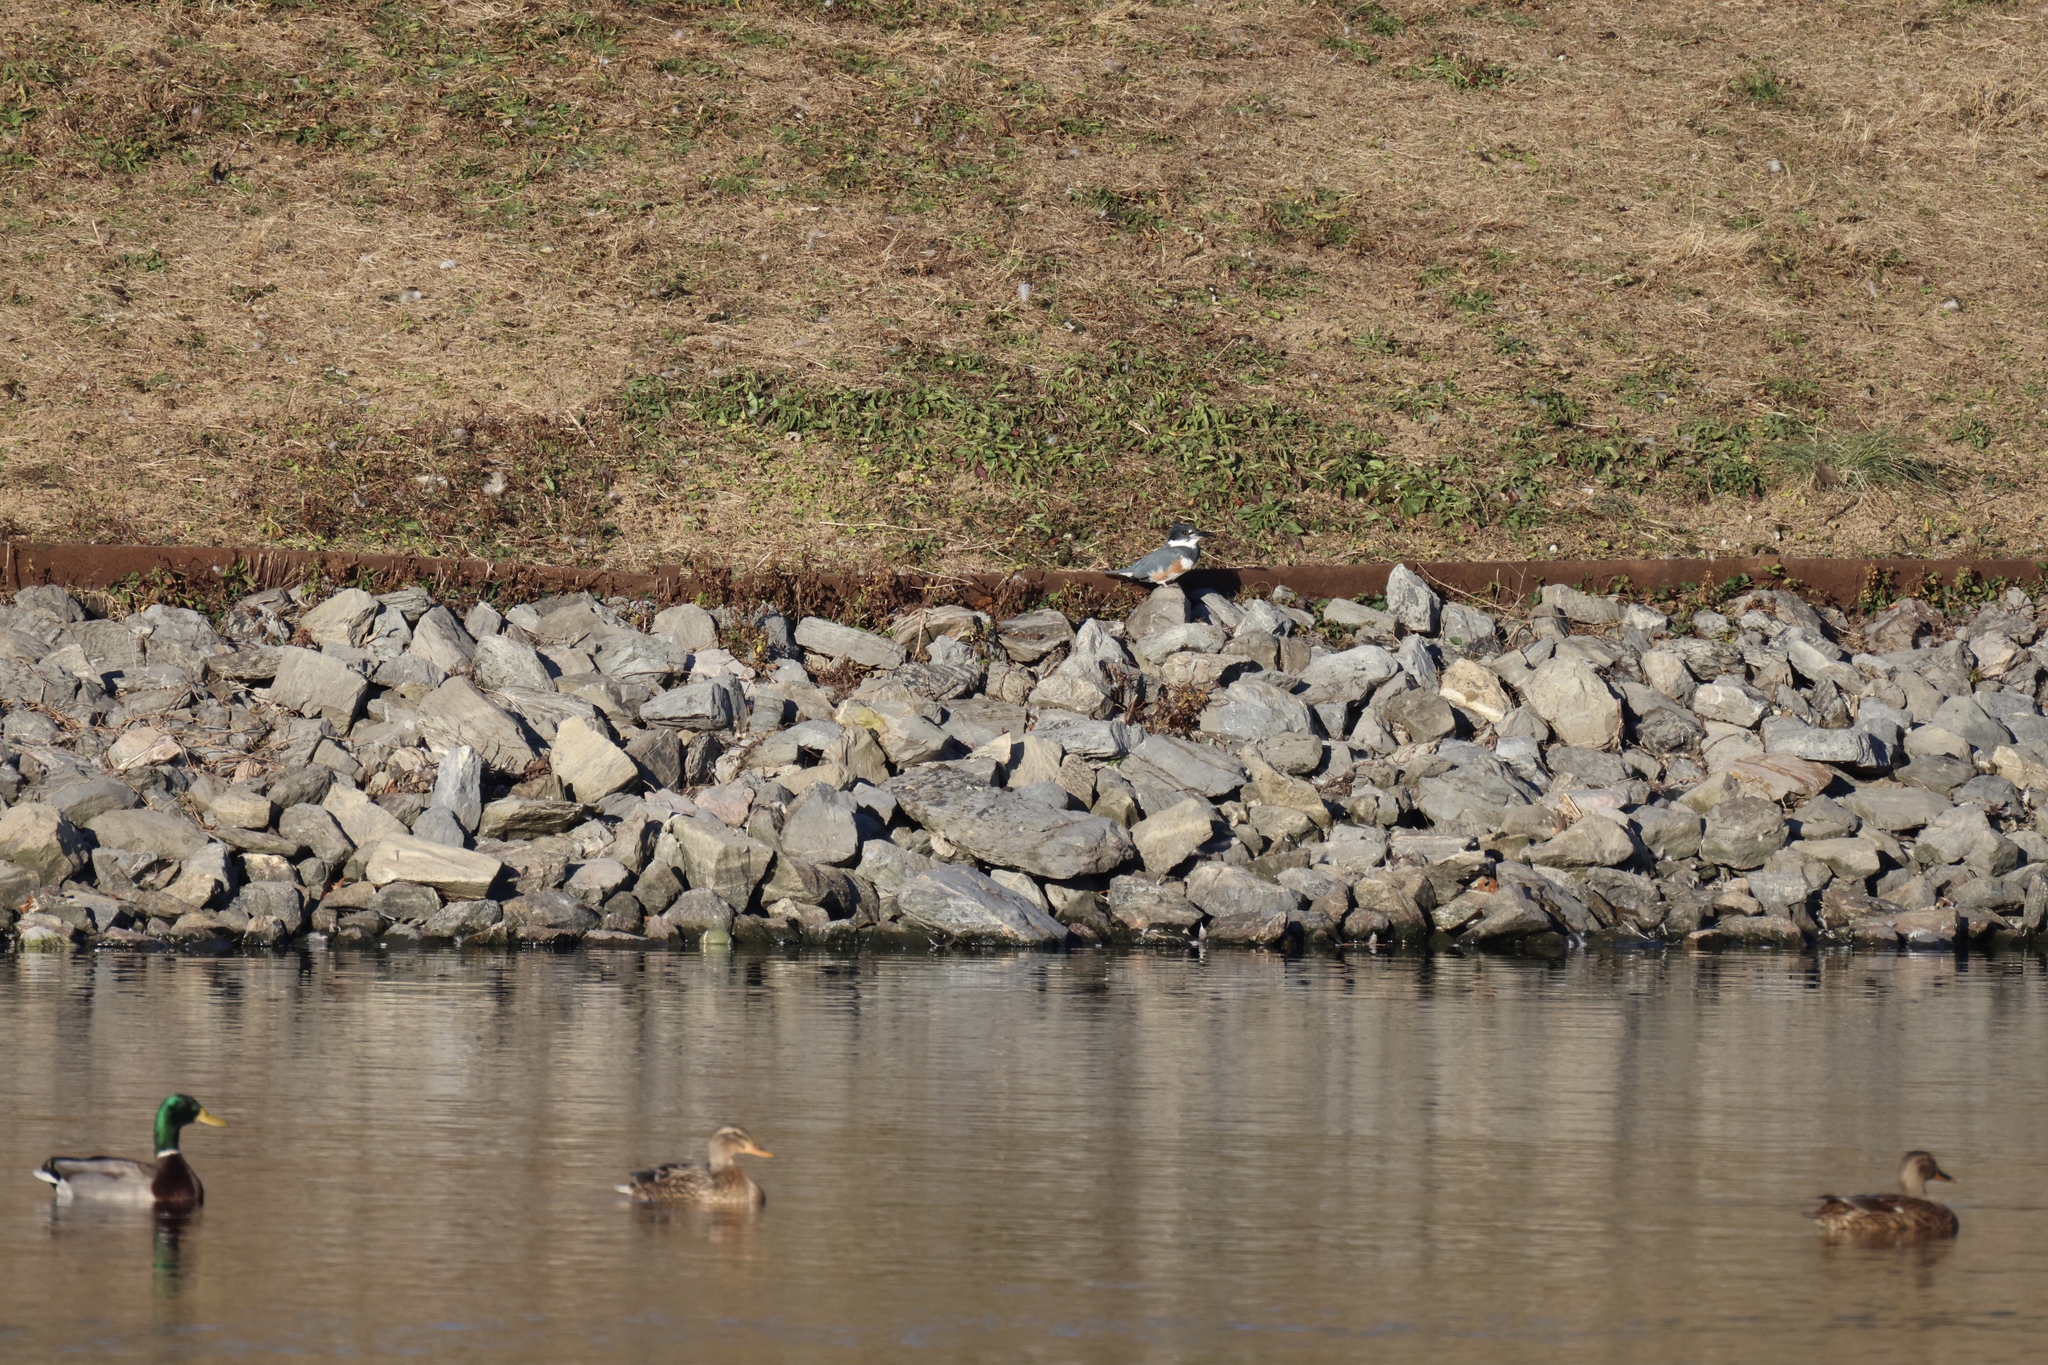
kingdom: Animalia
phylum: Chordata
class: Aves
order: Coraciiformes
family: Alcedinidae
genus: Megaceryle
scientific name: Megaceryle alcyon
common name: Belted kingfisher
